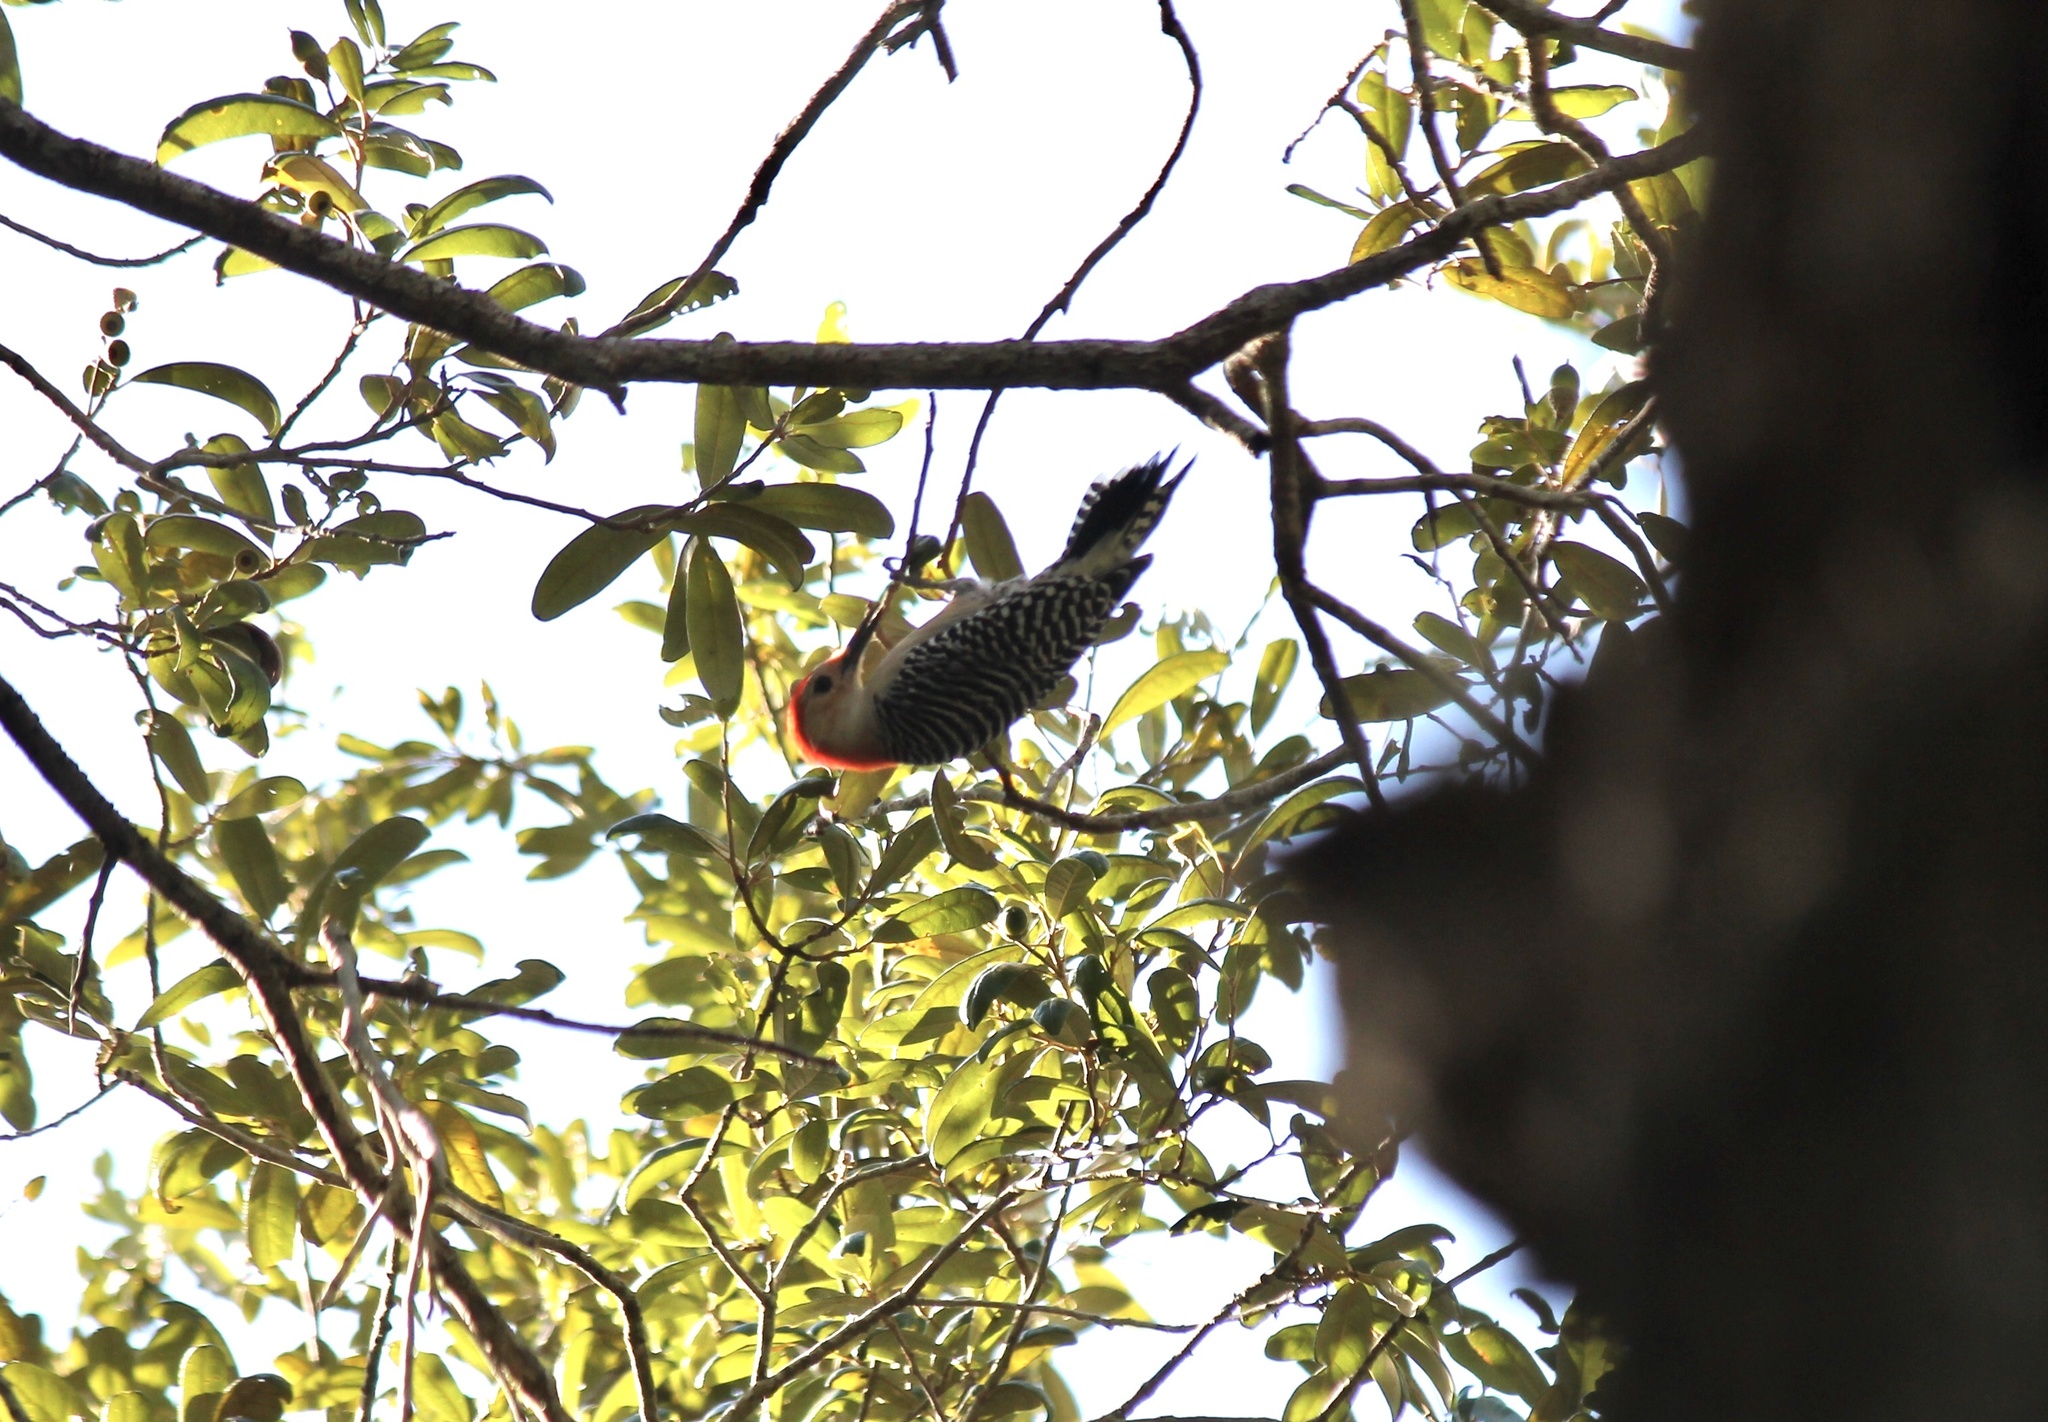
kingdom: Animalia
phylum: Chordata
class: Aves
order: Piciformes
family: Picidae
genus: Melanerpes
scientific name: Melanerpes carolinus
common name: Red-bellied woodpecker
